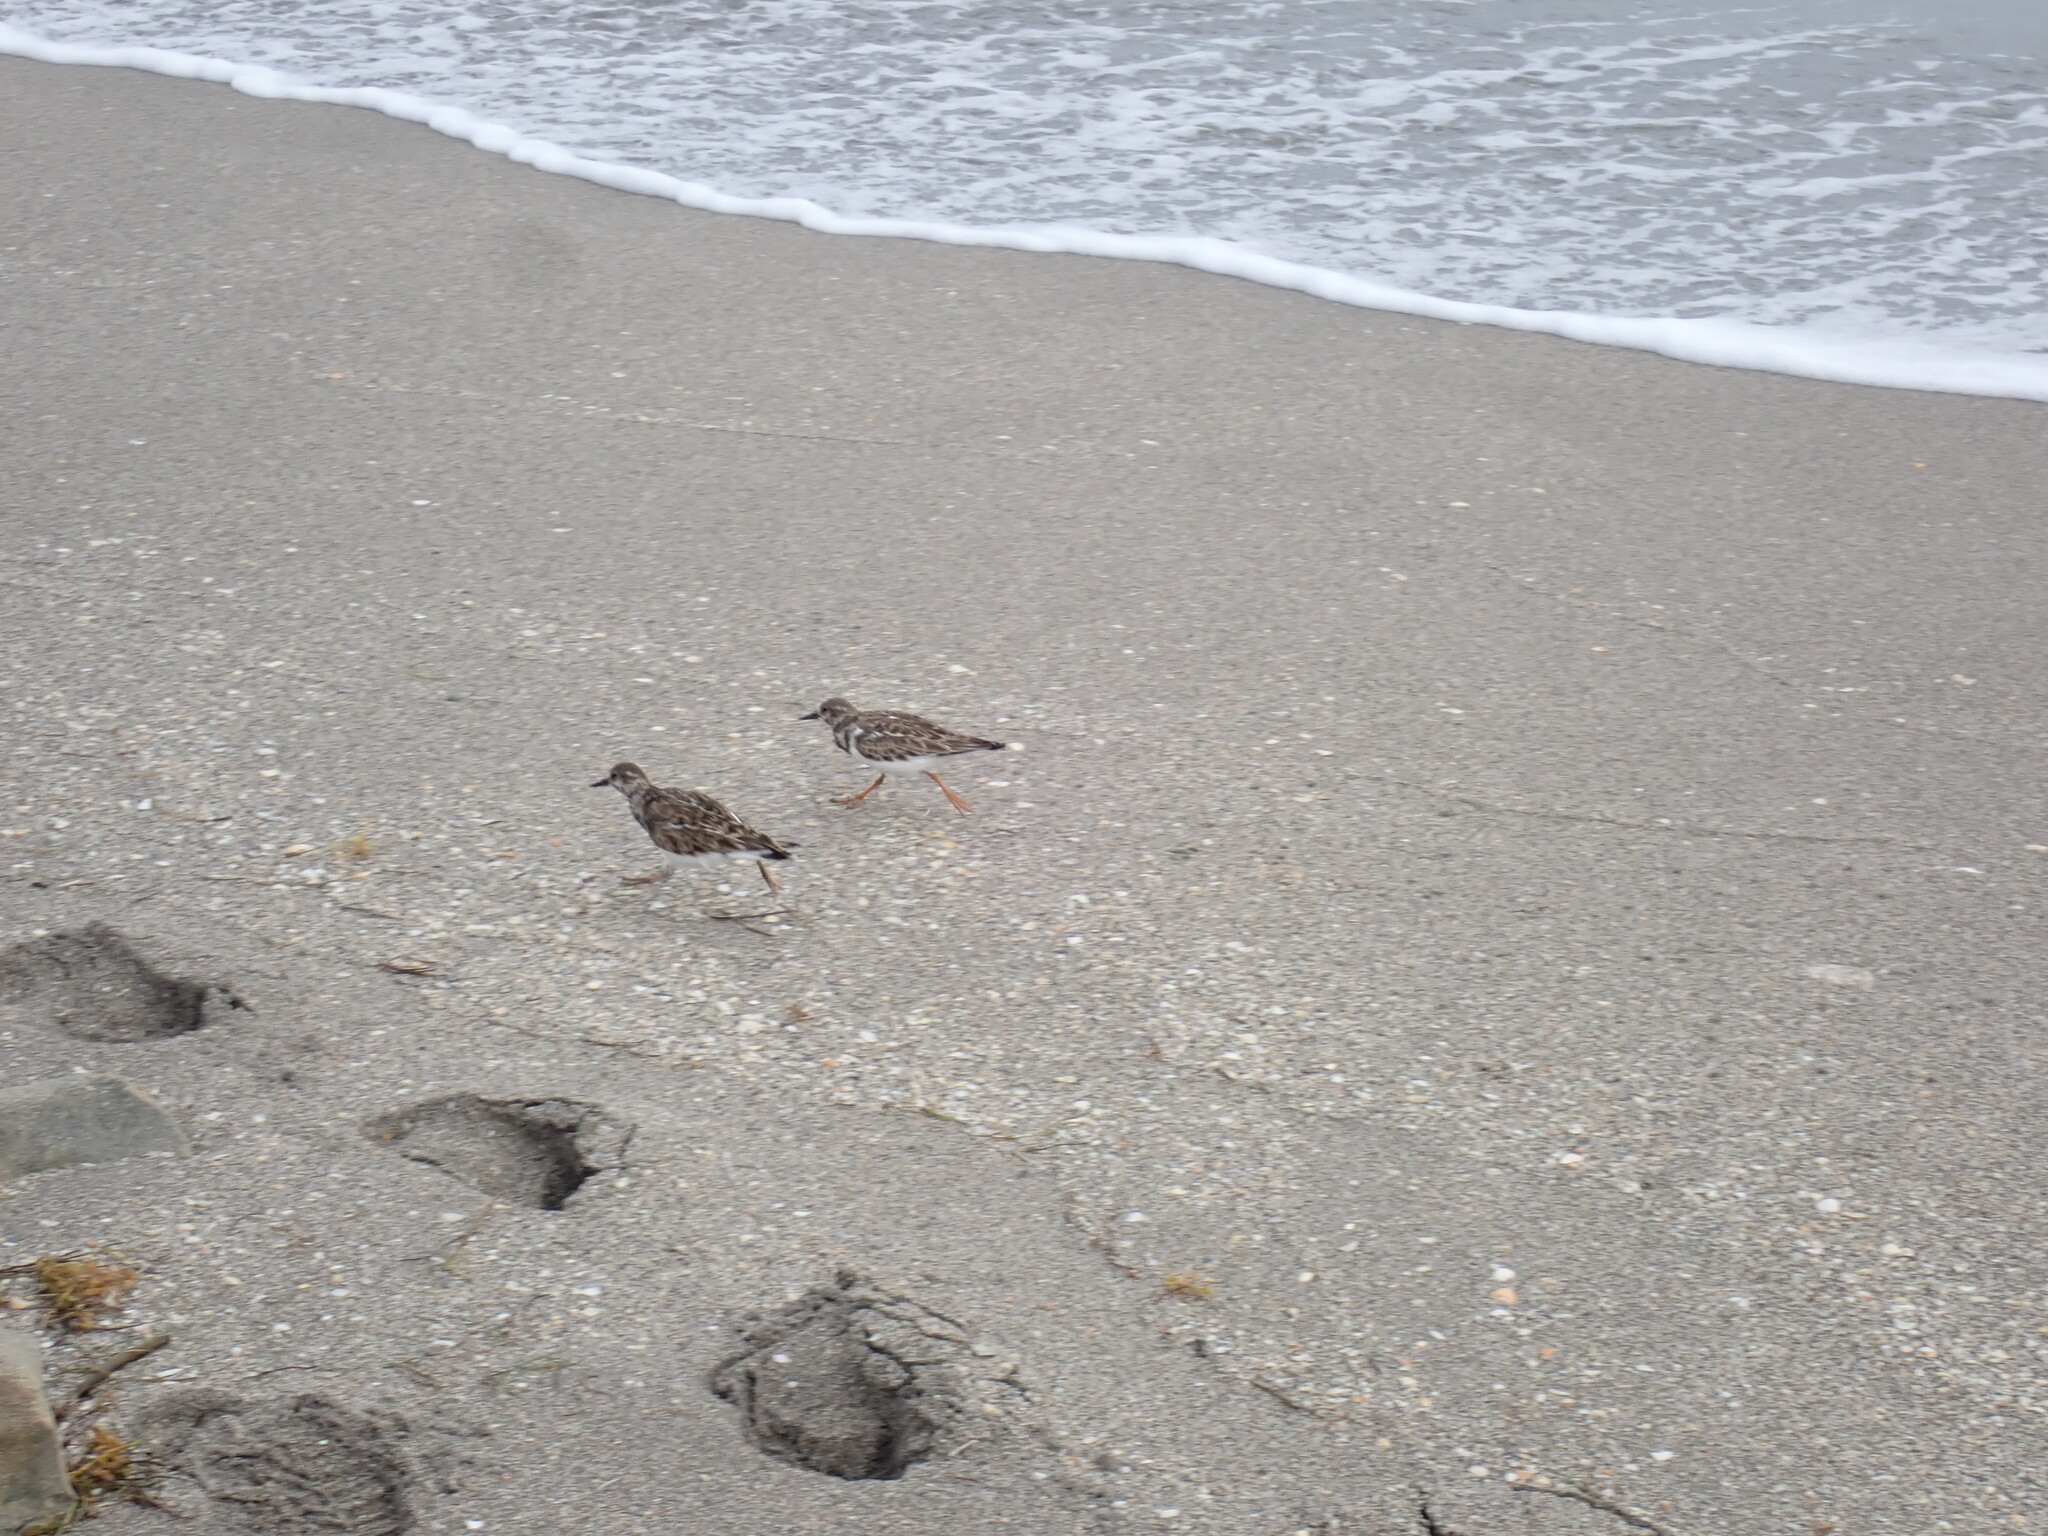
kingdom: Animalia
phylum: Chordata
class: Aves
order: Charadriiformes
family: Scolopacidae
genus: Arenaria
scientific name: Arenaria interpres
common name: Ruddy turnstone
